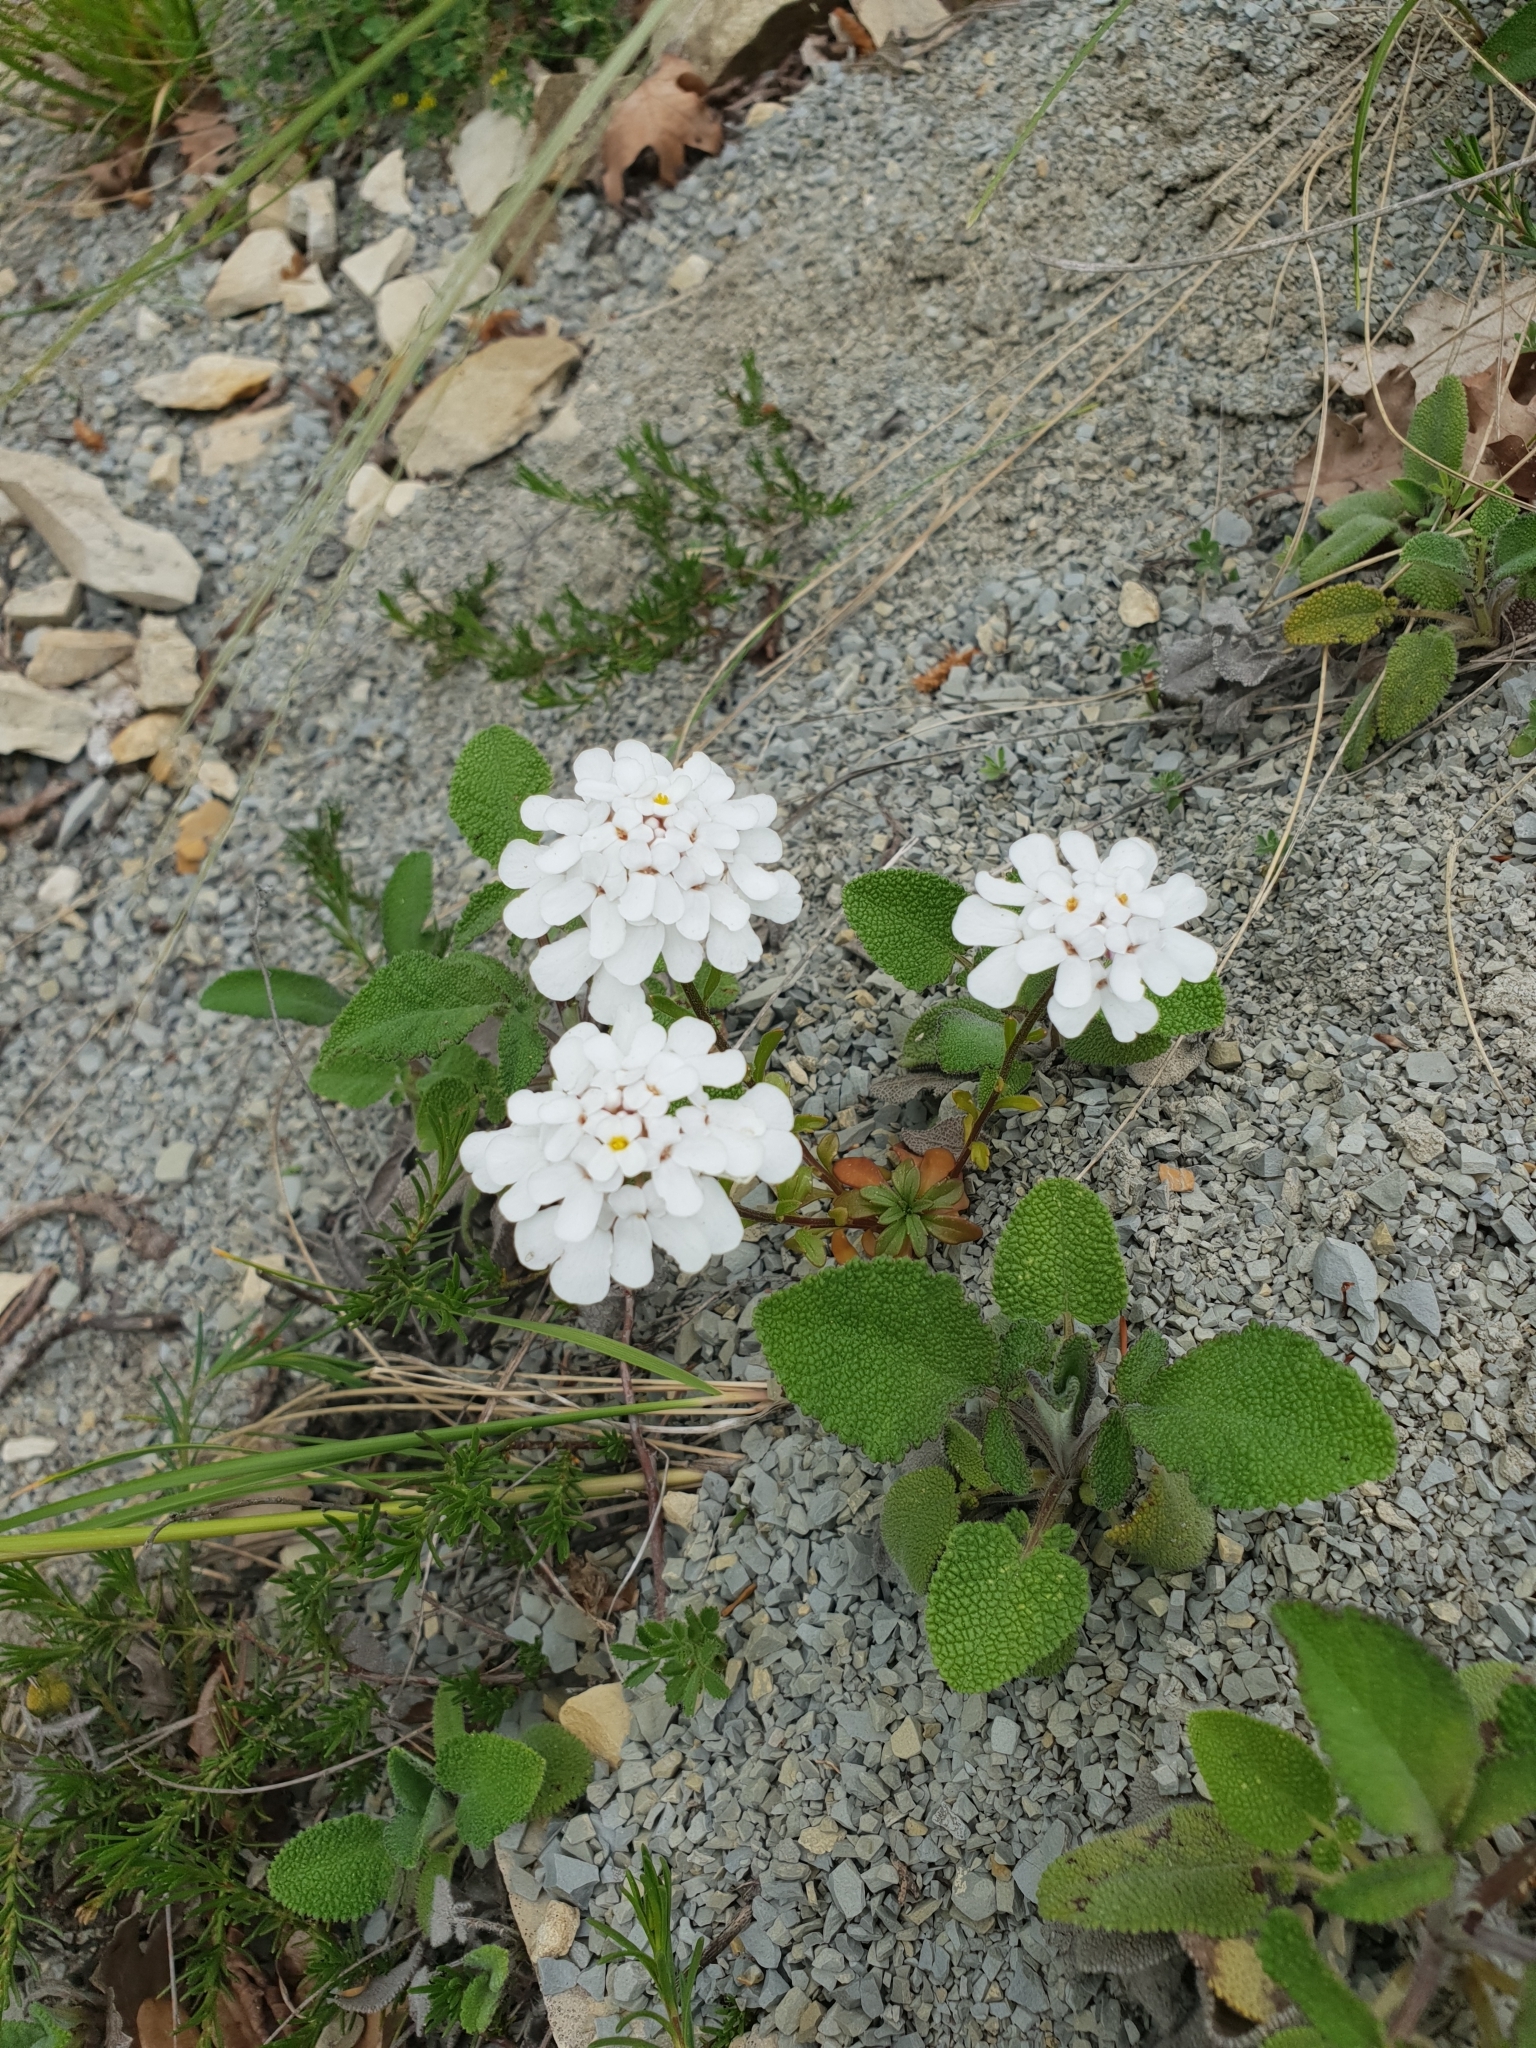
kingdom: Plantae
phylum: Tracheophyta
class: Magnoliopsida
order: Brassicales
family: Brassicaceae
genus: Iberis
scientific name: Iberis simplex
